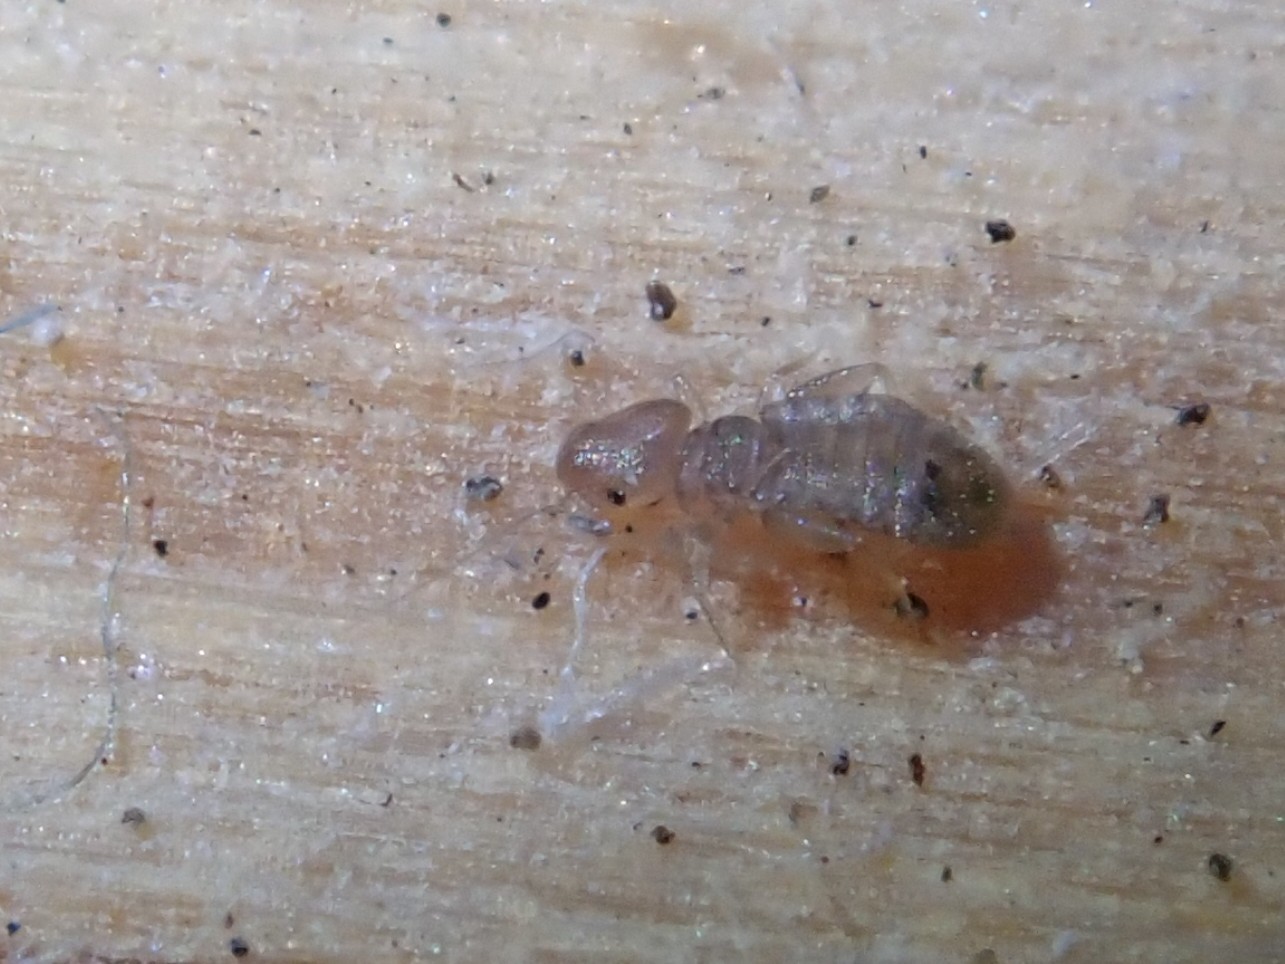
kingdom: Animalia
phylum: Arthropoda
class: Insecta
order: Psocodea
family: Liposcelididae
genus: Liposcelis
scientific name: Liposcelis bostrychophila
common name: Bark lice
